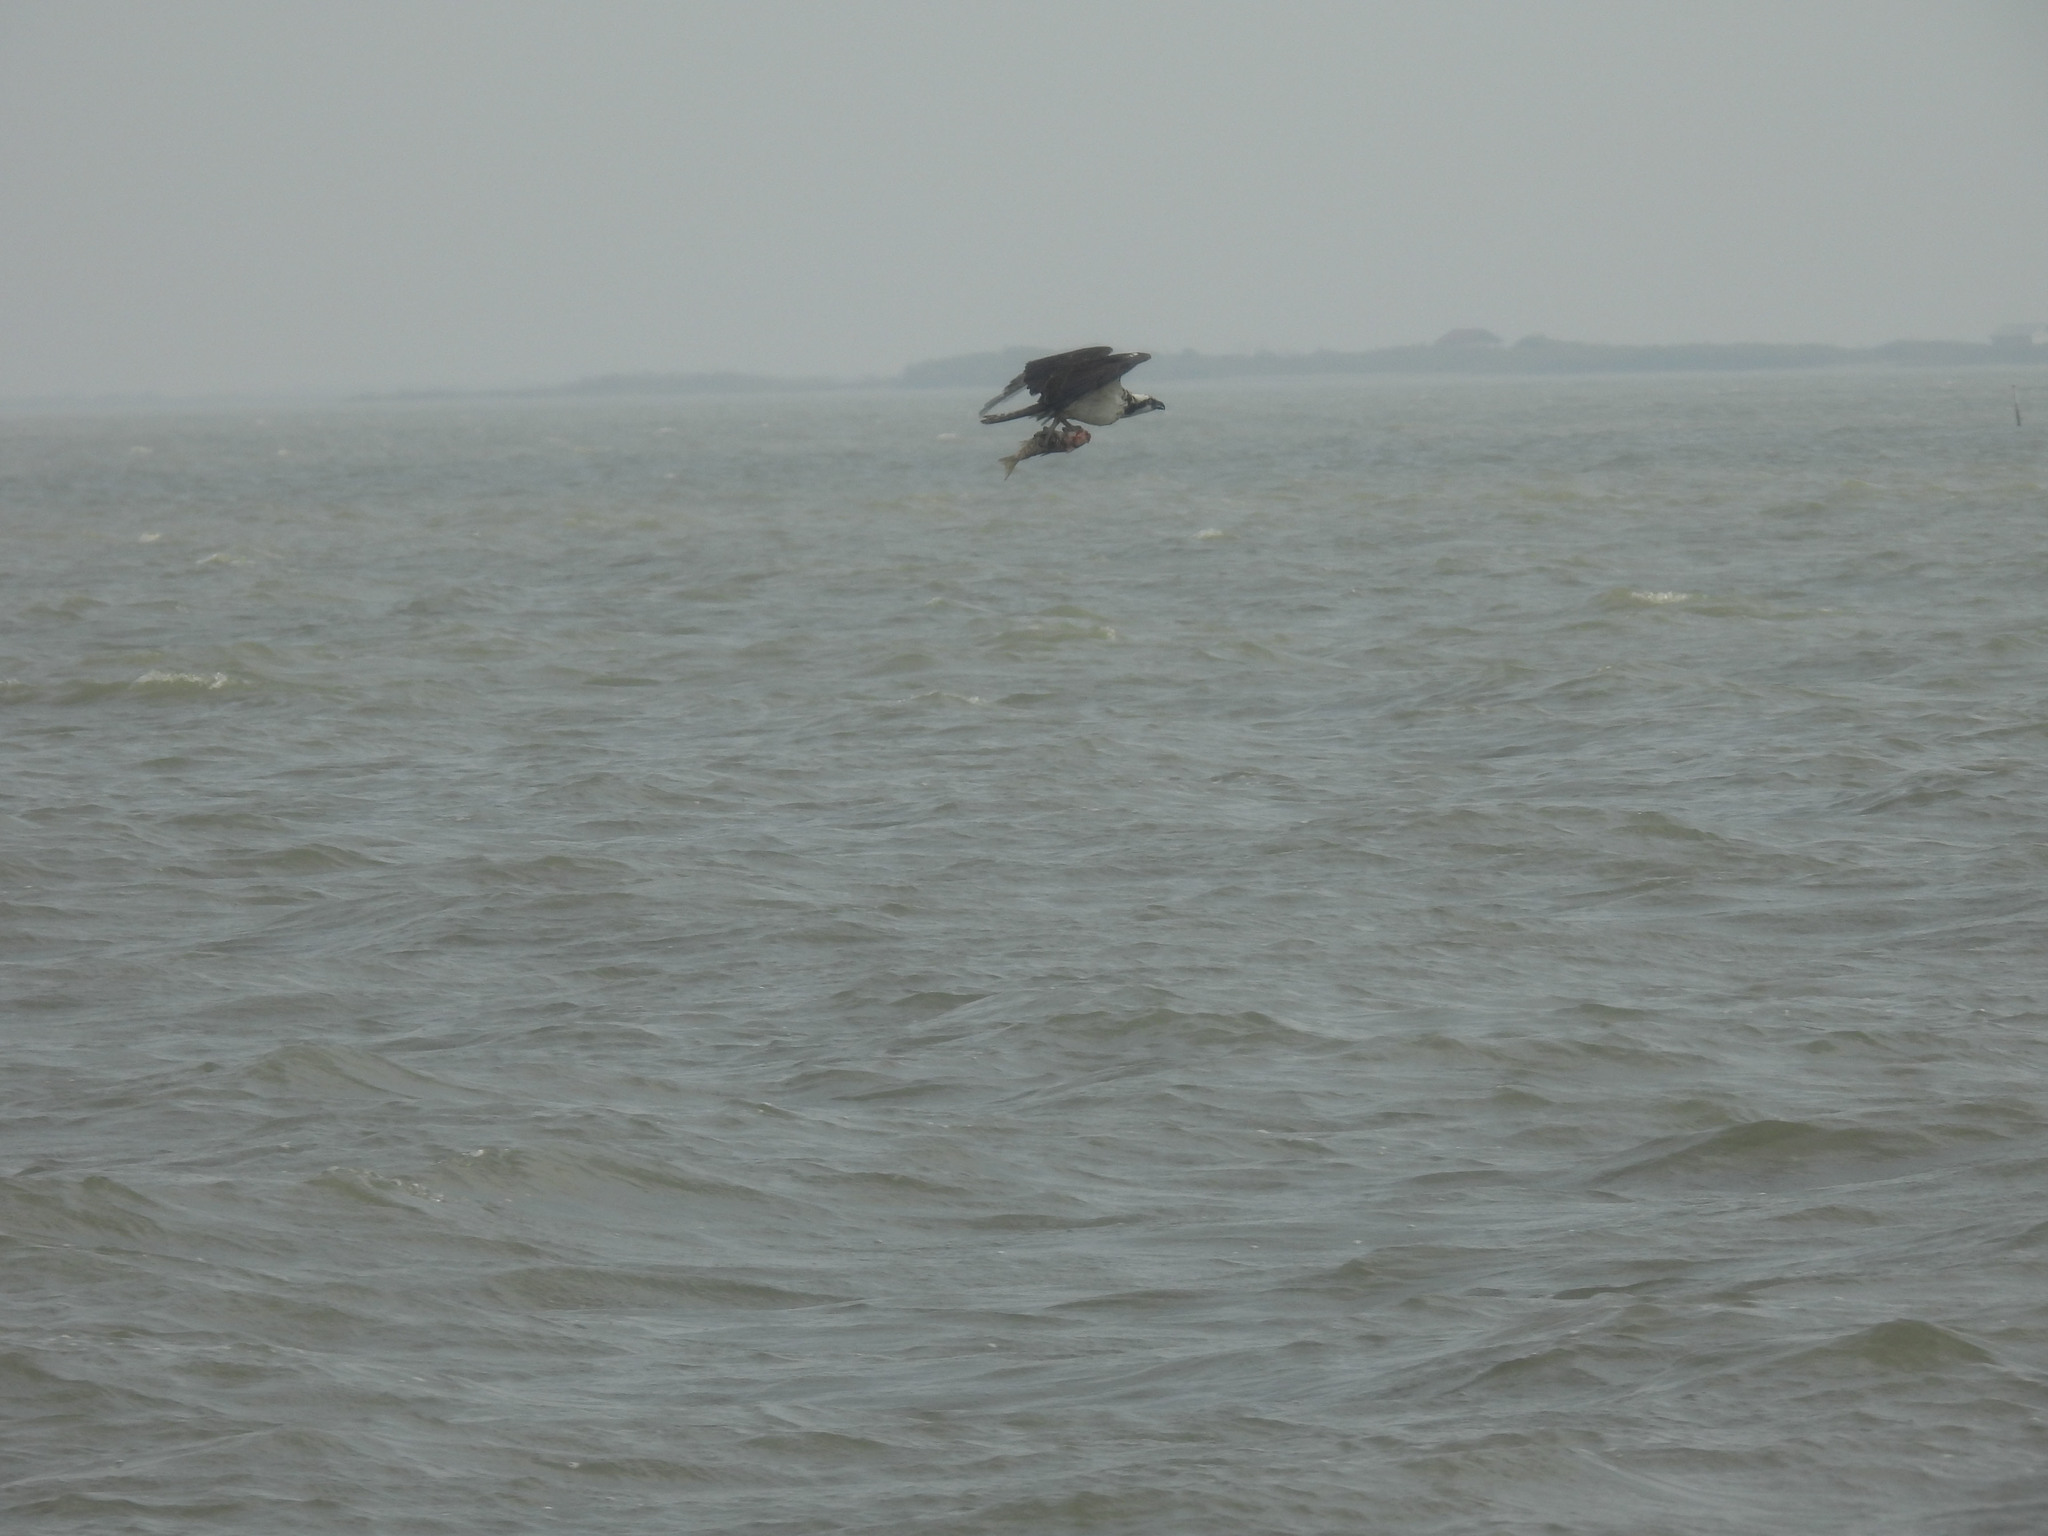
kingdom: Animalia
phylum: Chordata
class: Aves
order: Accipitriformes
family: Pandionidae
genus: Pandion
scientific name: Pandion haliaetus
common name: Osprey
